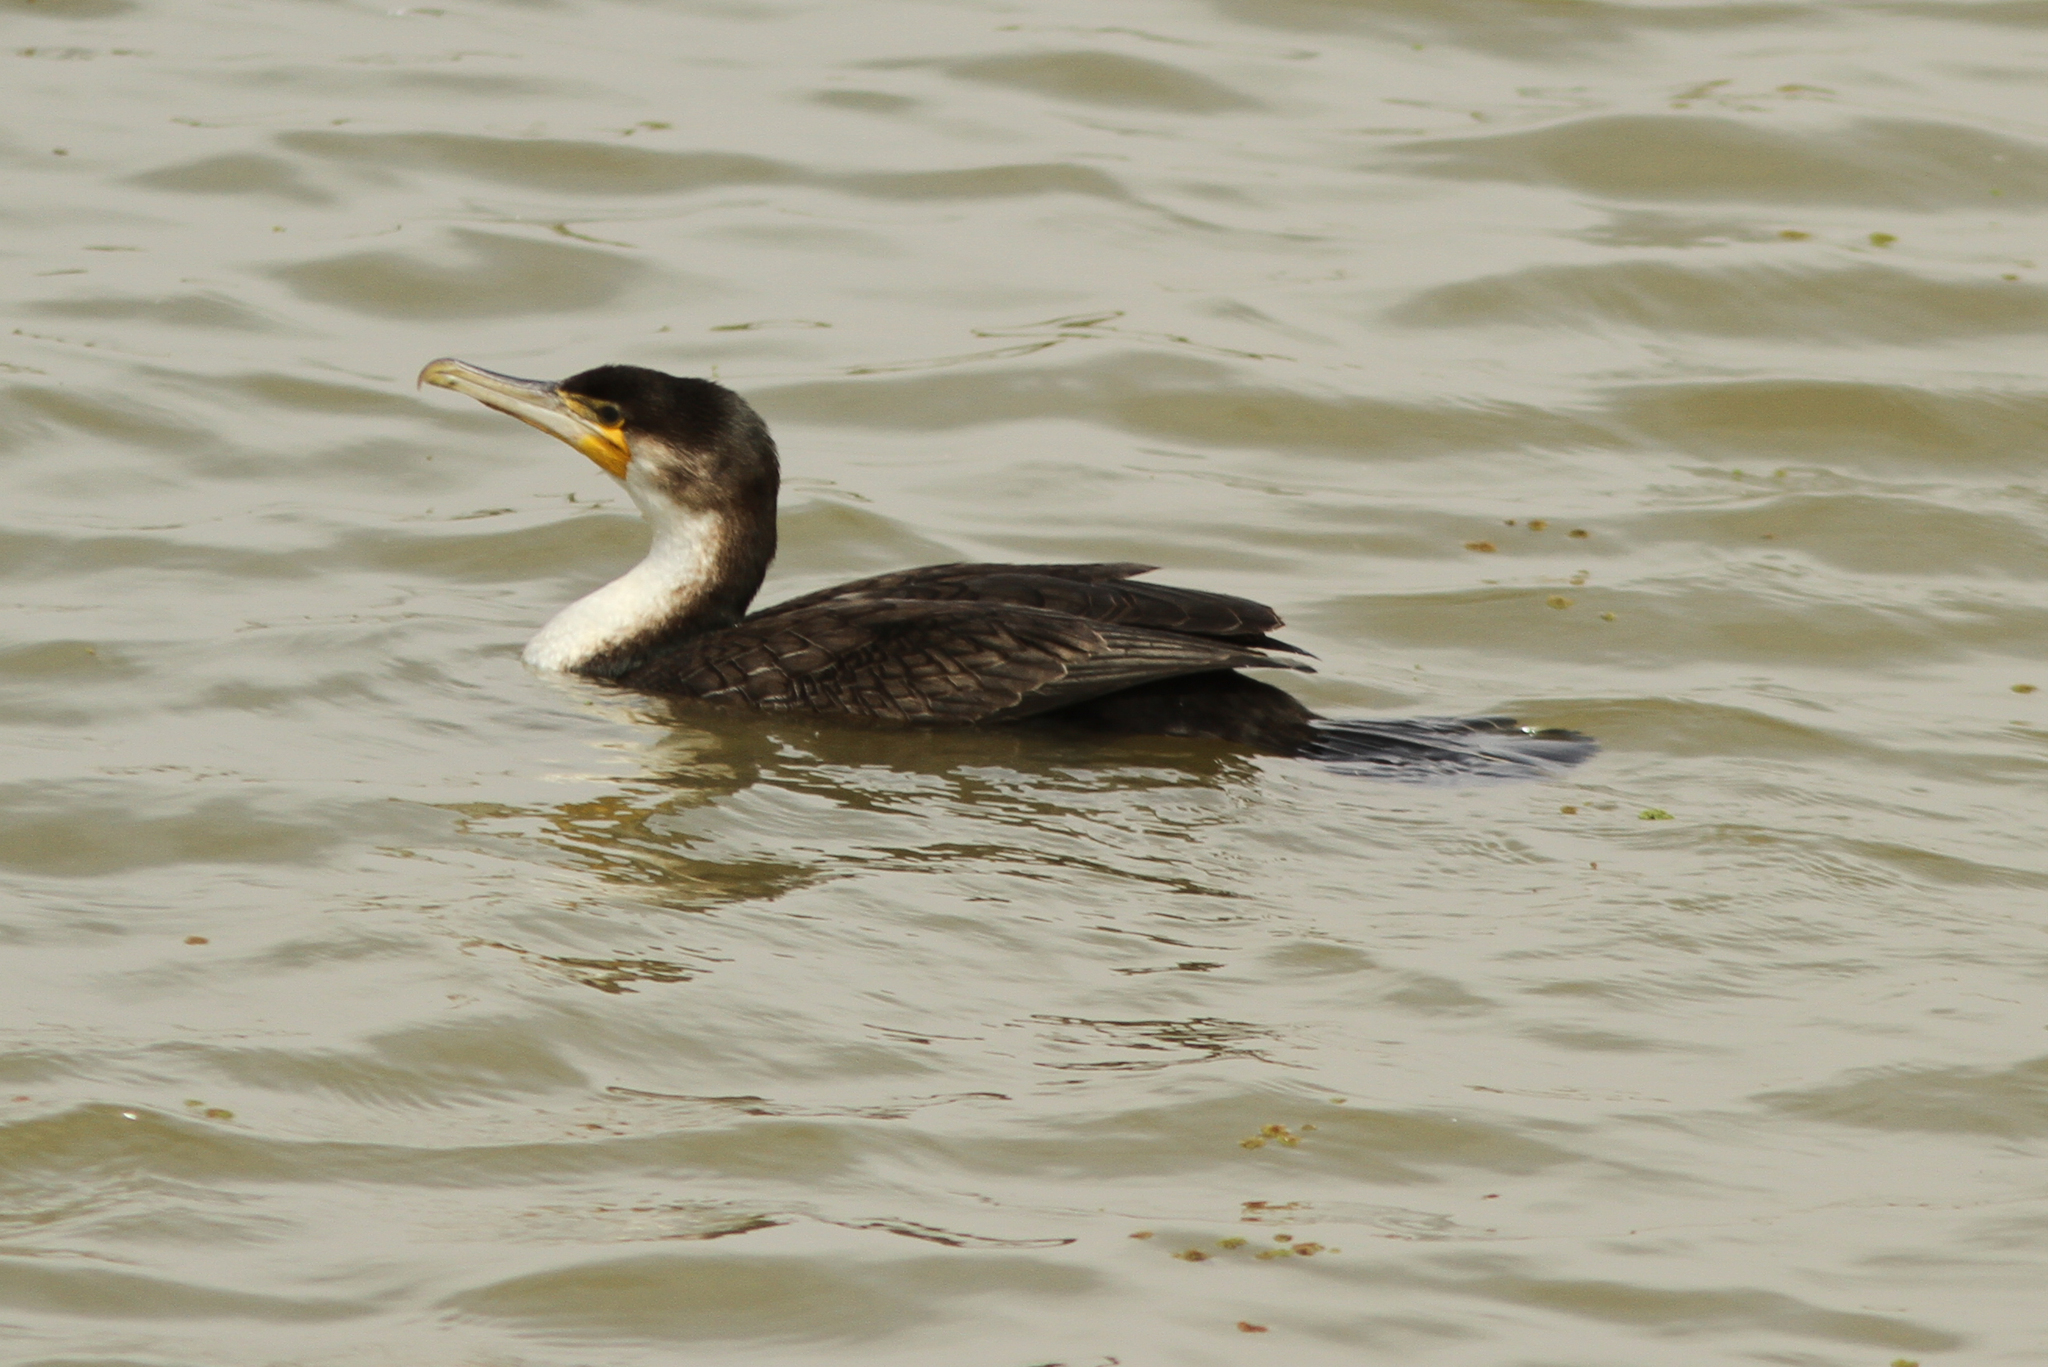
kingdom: Animalia
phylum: Chordata
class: Aves
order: Suliformes
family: Phalacrocoracidae
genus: Phalacrocorax
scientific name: Phalacrocorax carbo
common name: Great cormorant
